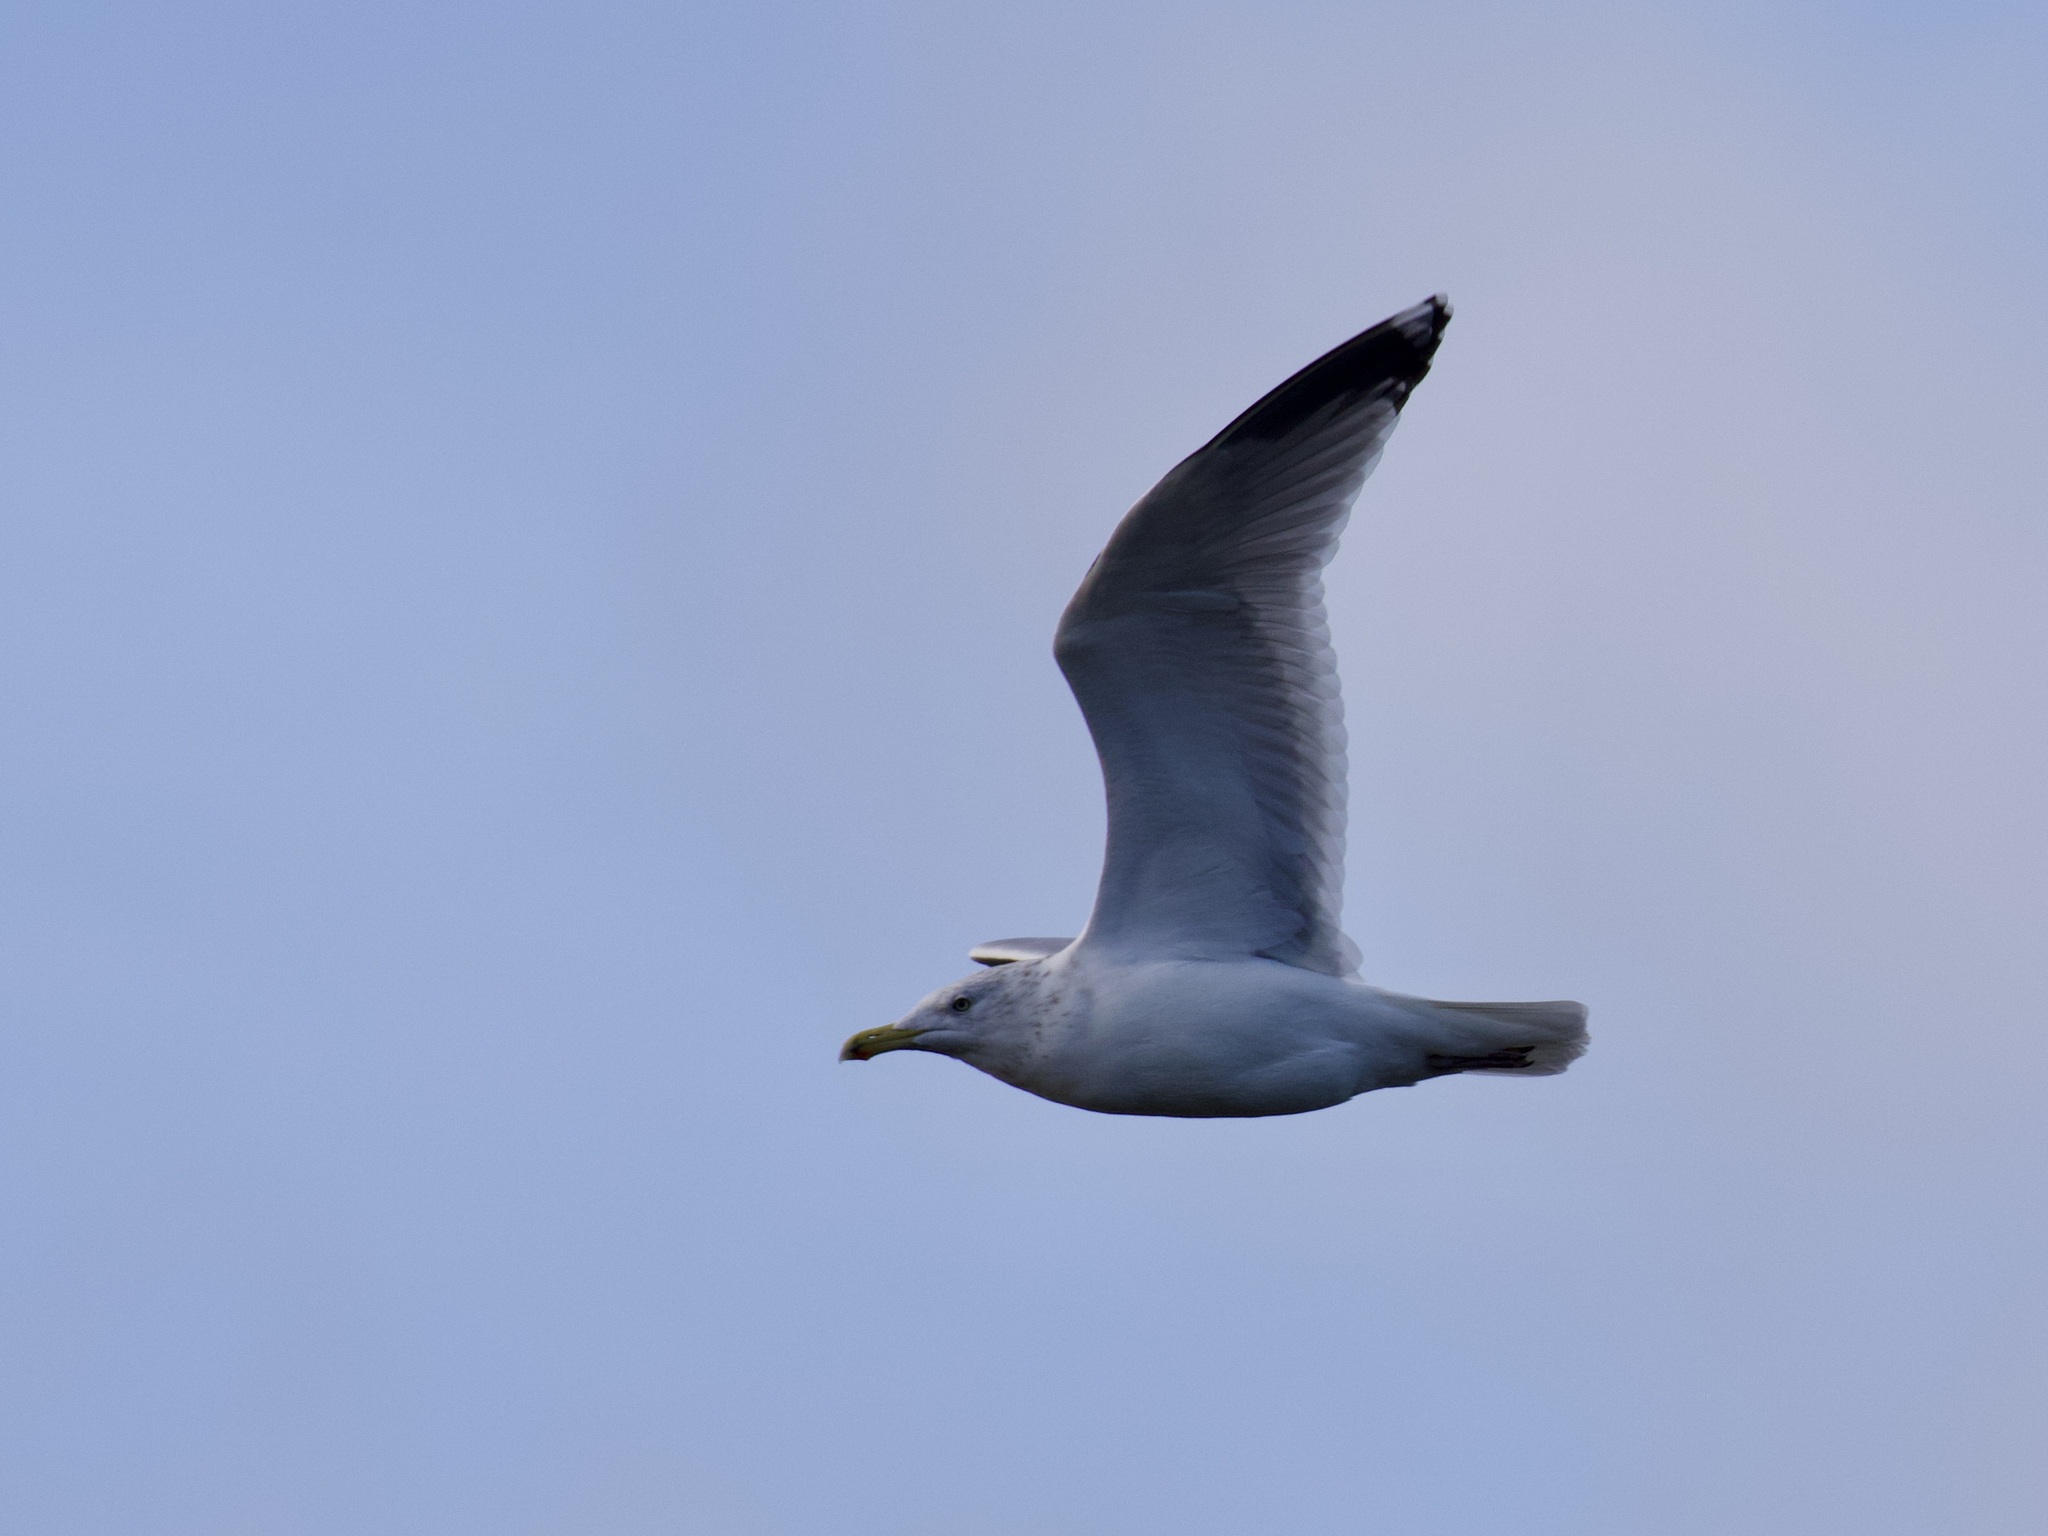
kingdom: Animalia
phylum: Chordata
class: Aves
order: Charadriiformes
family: Laridae
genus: Larus
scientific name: Larus argentatus
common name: Herring gull
